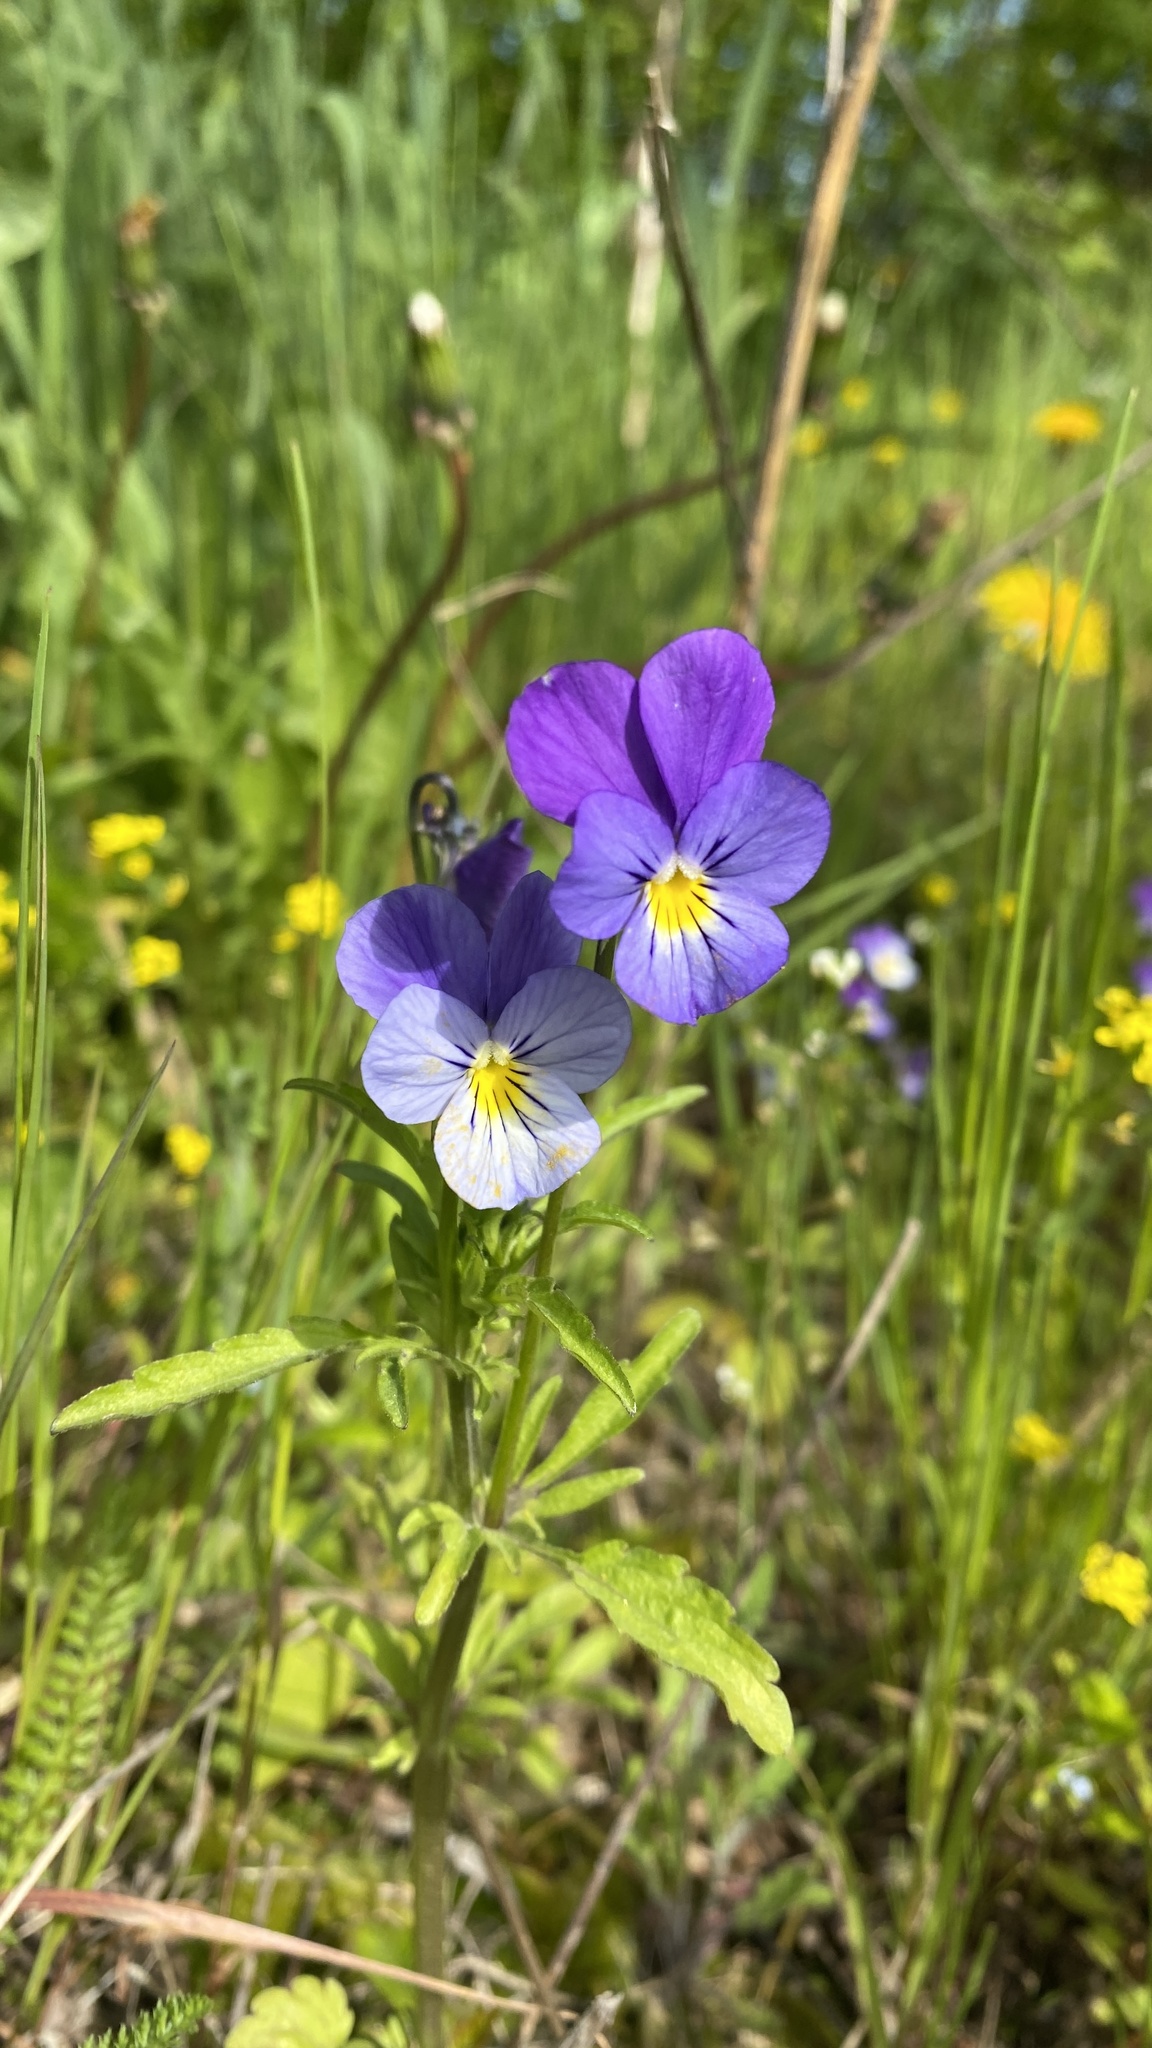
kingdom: Plantae
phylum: Tracheophyta
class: Magnoliopsida
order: Malpighiales
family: Violaceae
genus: Viola
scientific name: Viola tricolor
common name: Pansy
